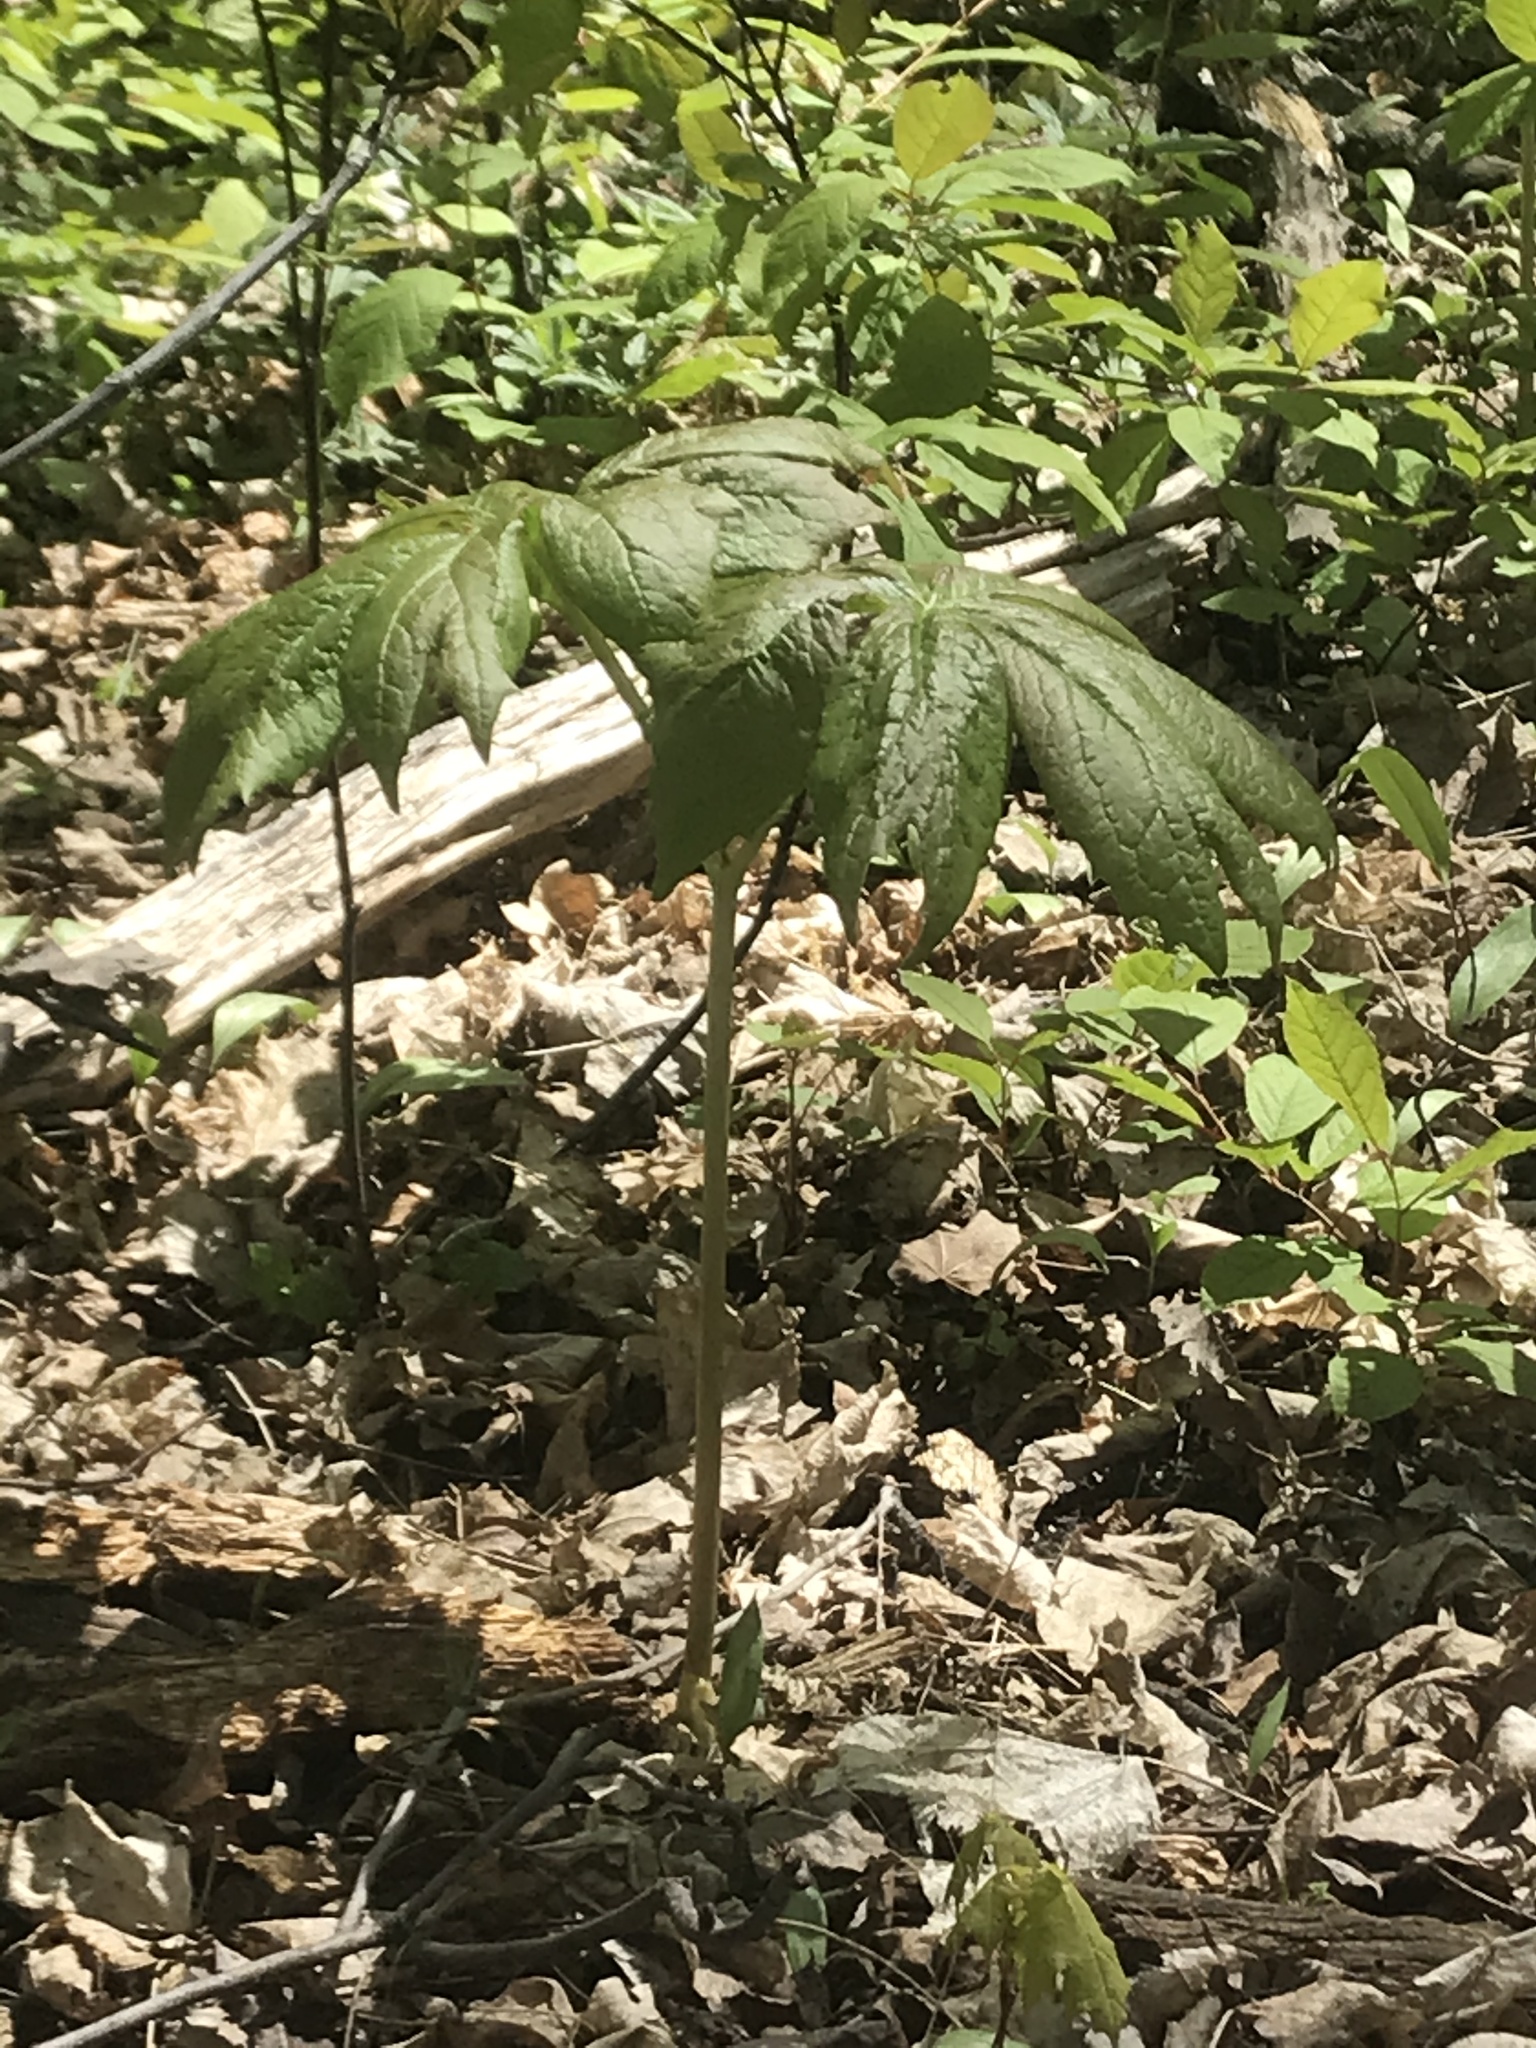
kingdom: Plantae
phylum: Tracheophyta
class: Magnoliopsida
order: Ranunculales
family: Berberidaceae
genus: Podophyllum
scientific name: Podophyllum peltatum
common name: Wild mandrake
